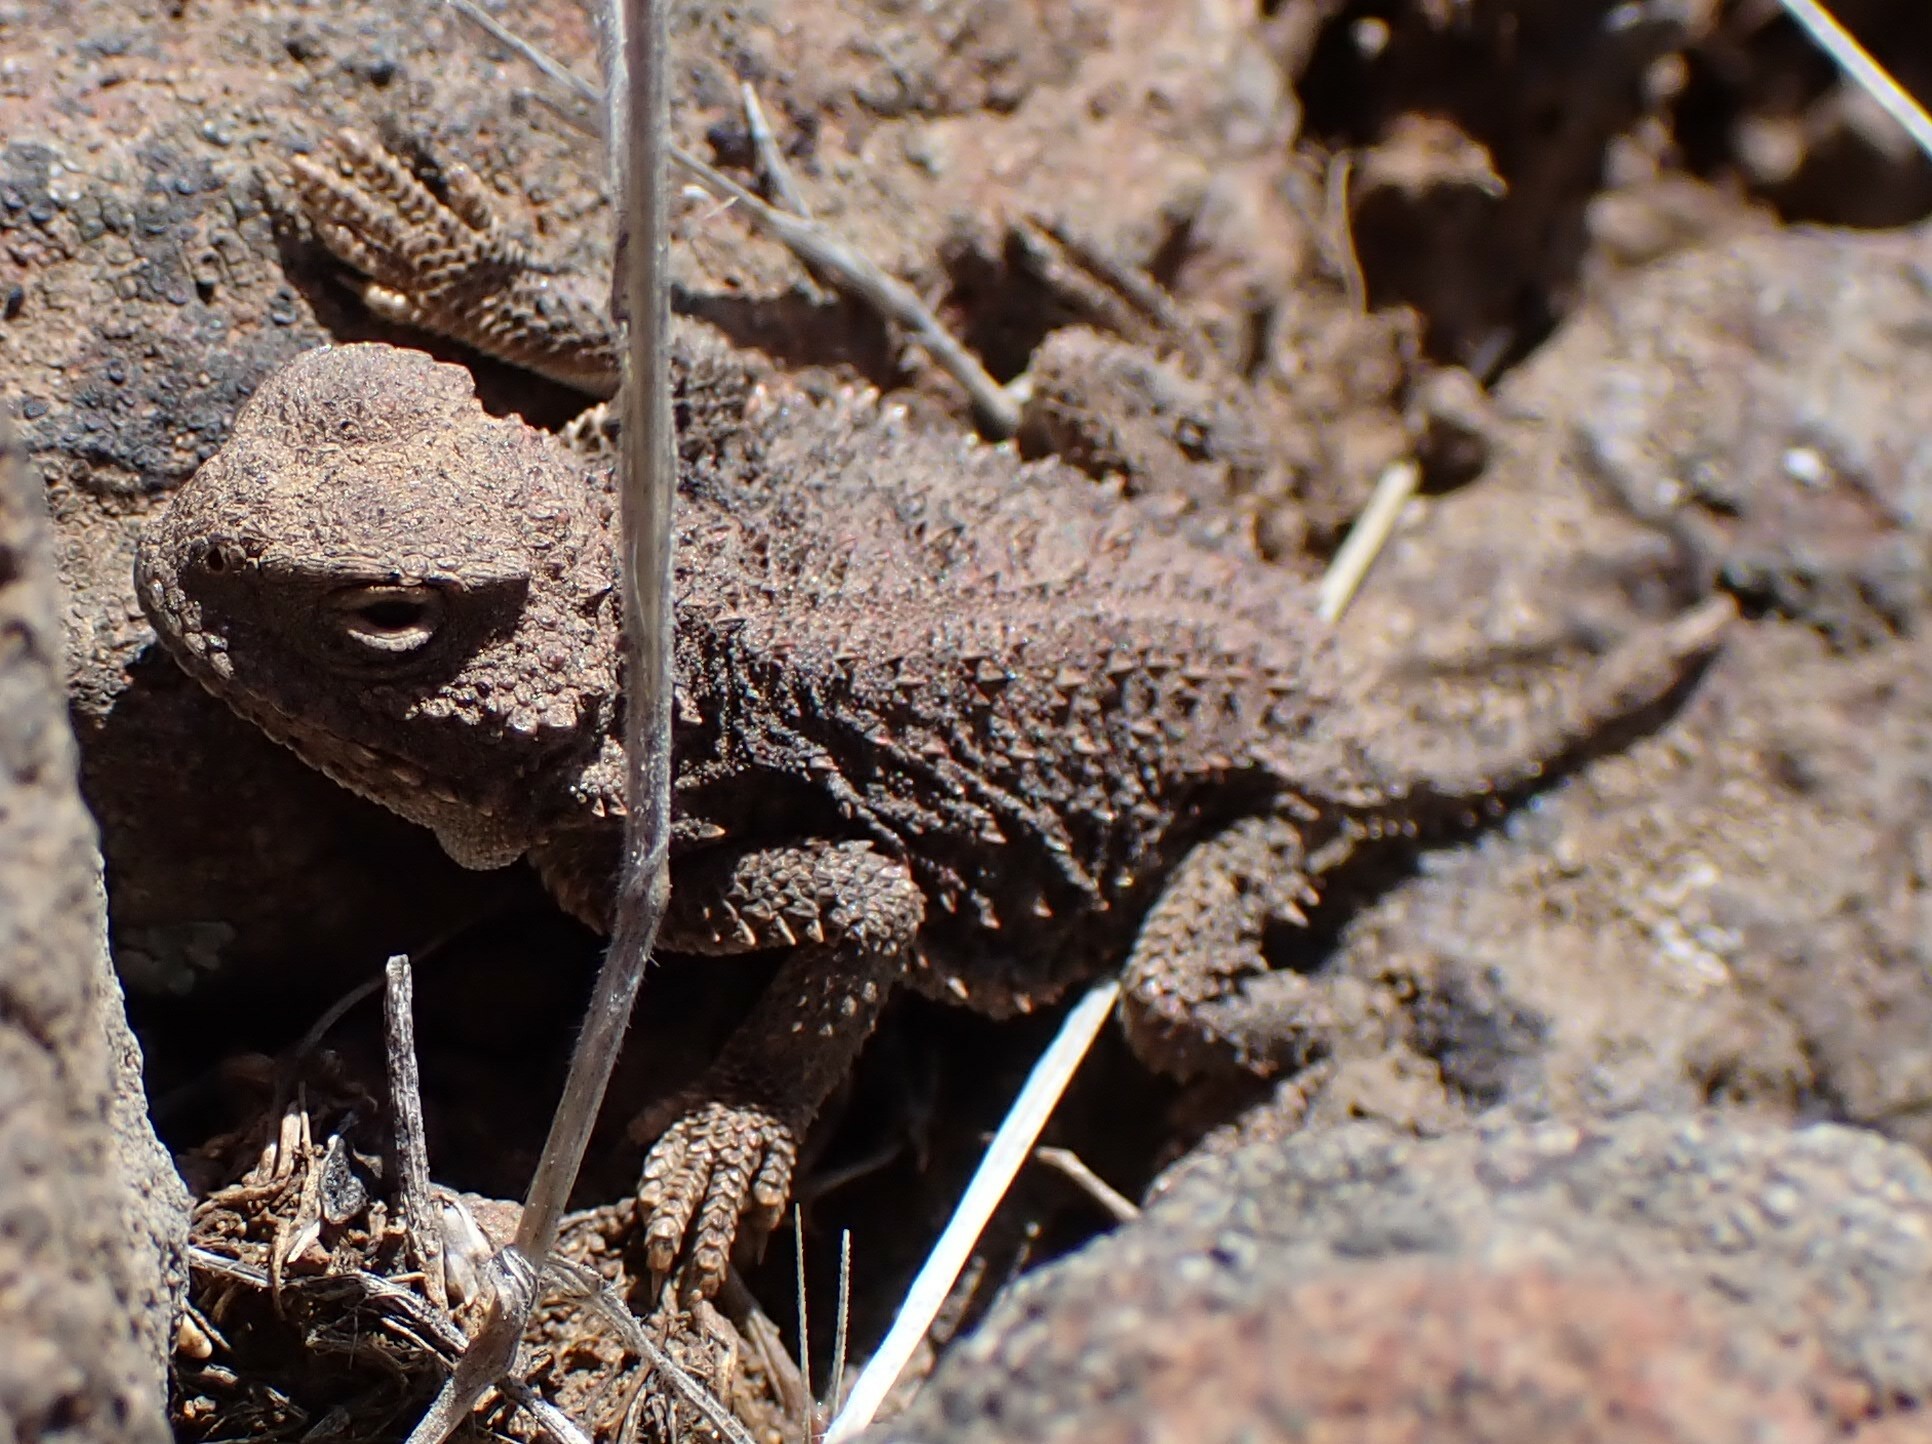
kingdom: Animalia
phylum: Chordata
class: Squamata
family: Phrynosomatidae
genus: Phrynosoma
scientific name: Phrynosoma douglasii
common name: Short-horned lizard
